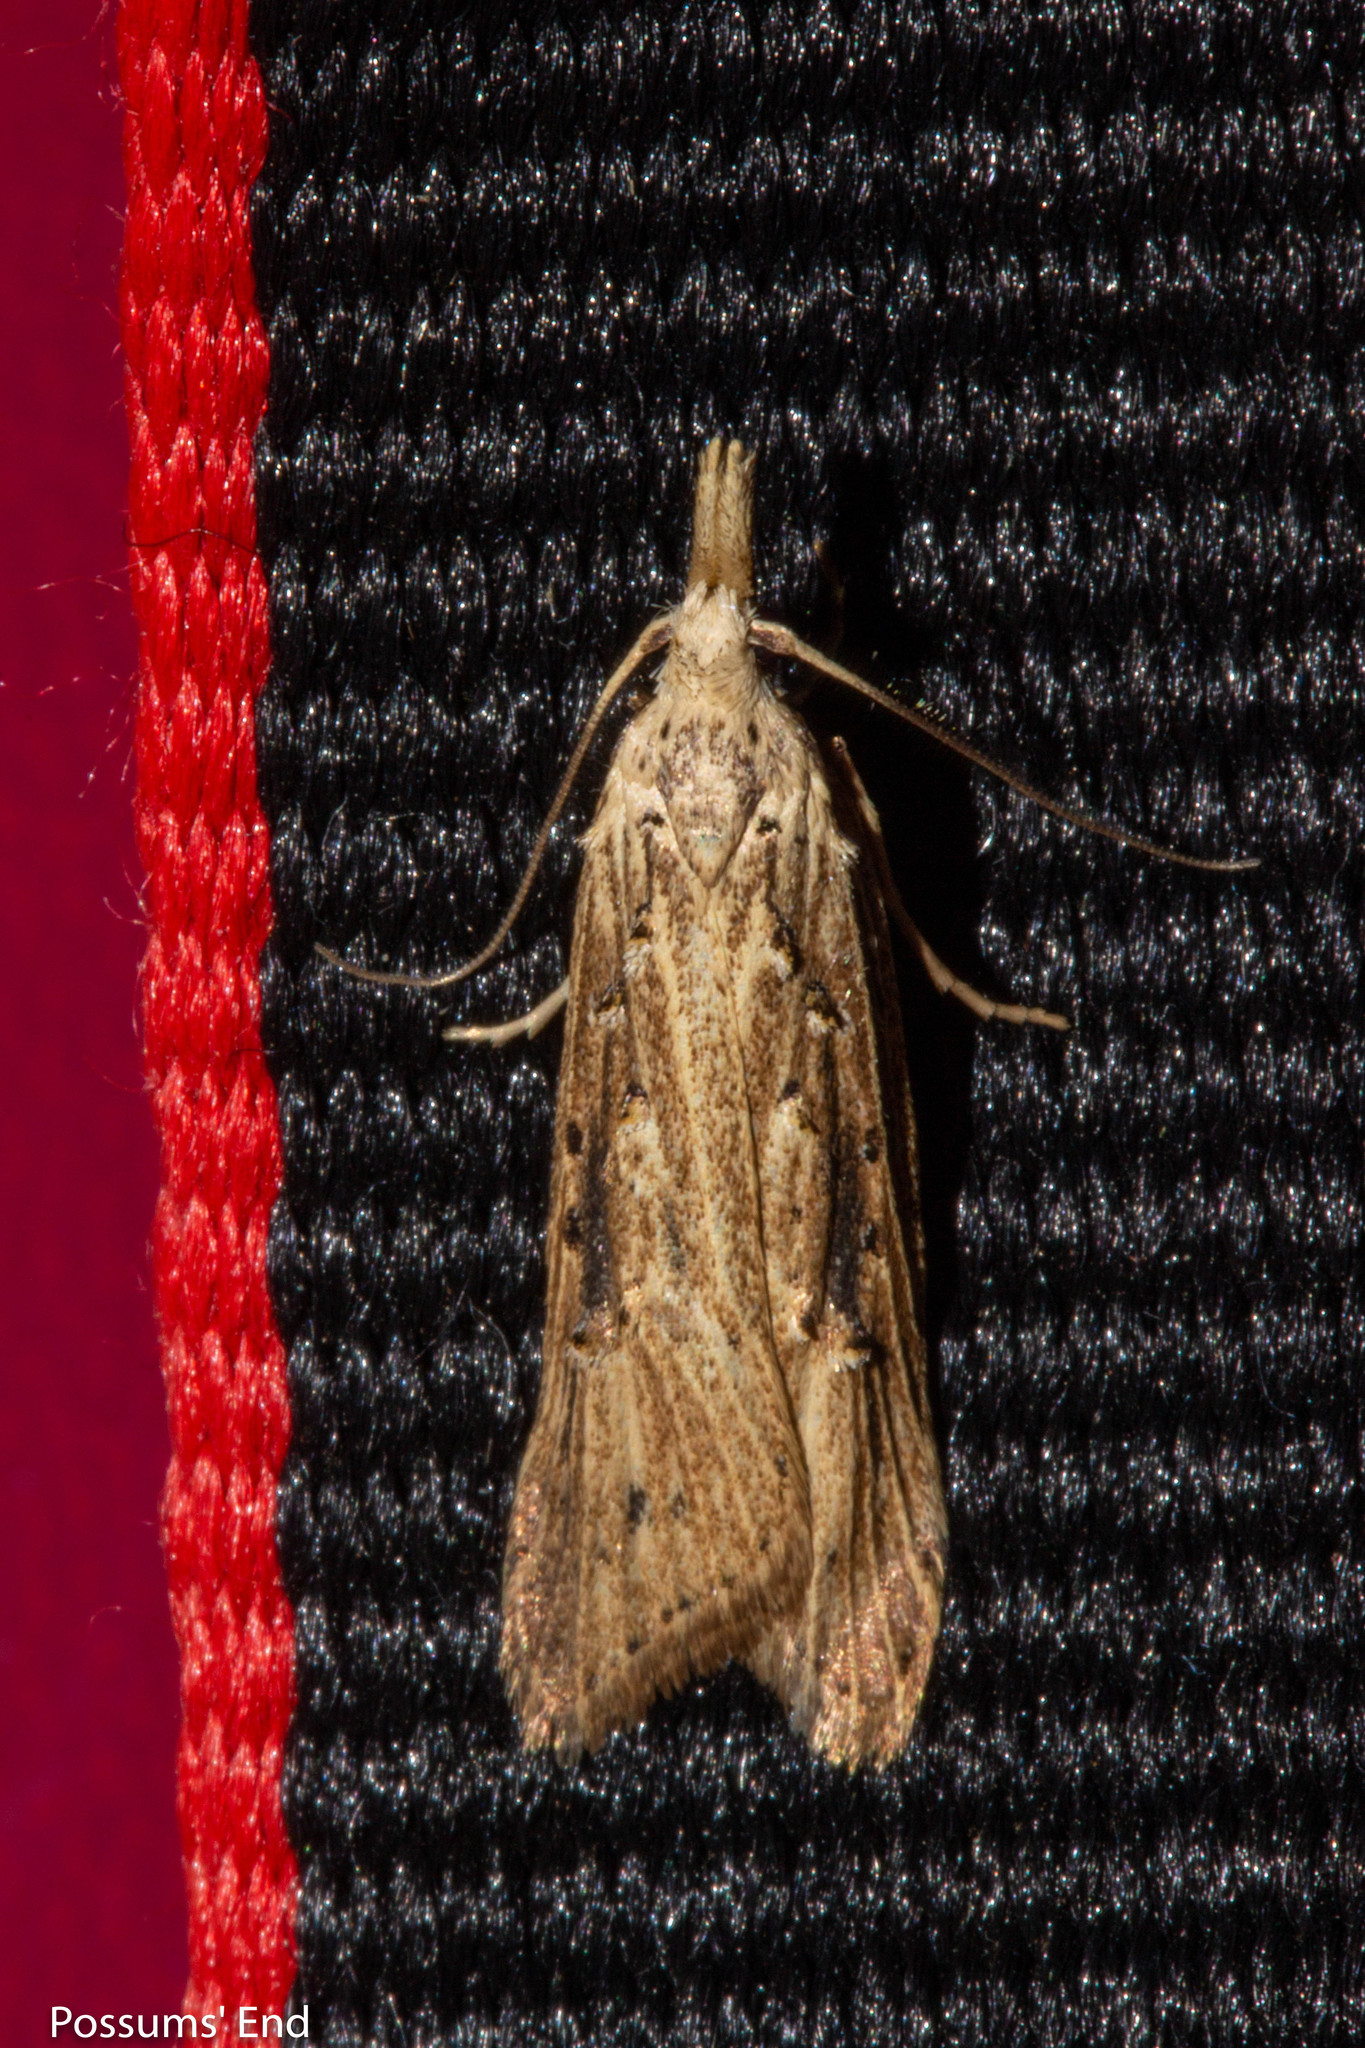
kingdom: Animalia
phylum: Arthropoda
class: Insecta
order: Lepidoptera
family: Carposinidae
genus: Carposina
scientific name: Carposina Heterocrossa exochana
